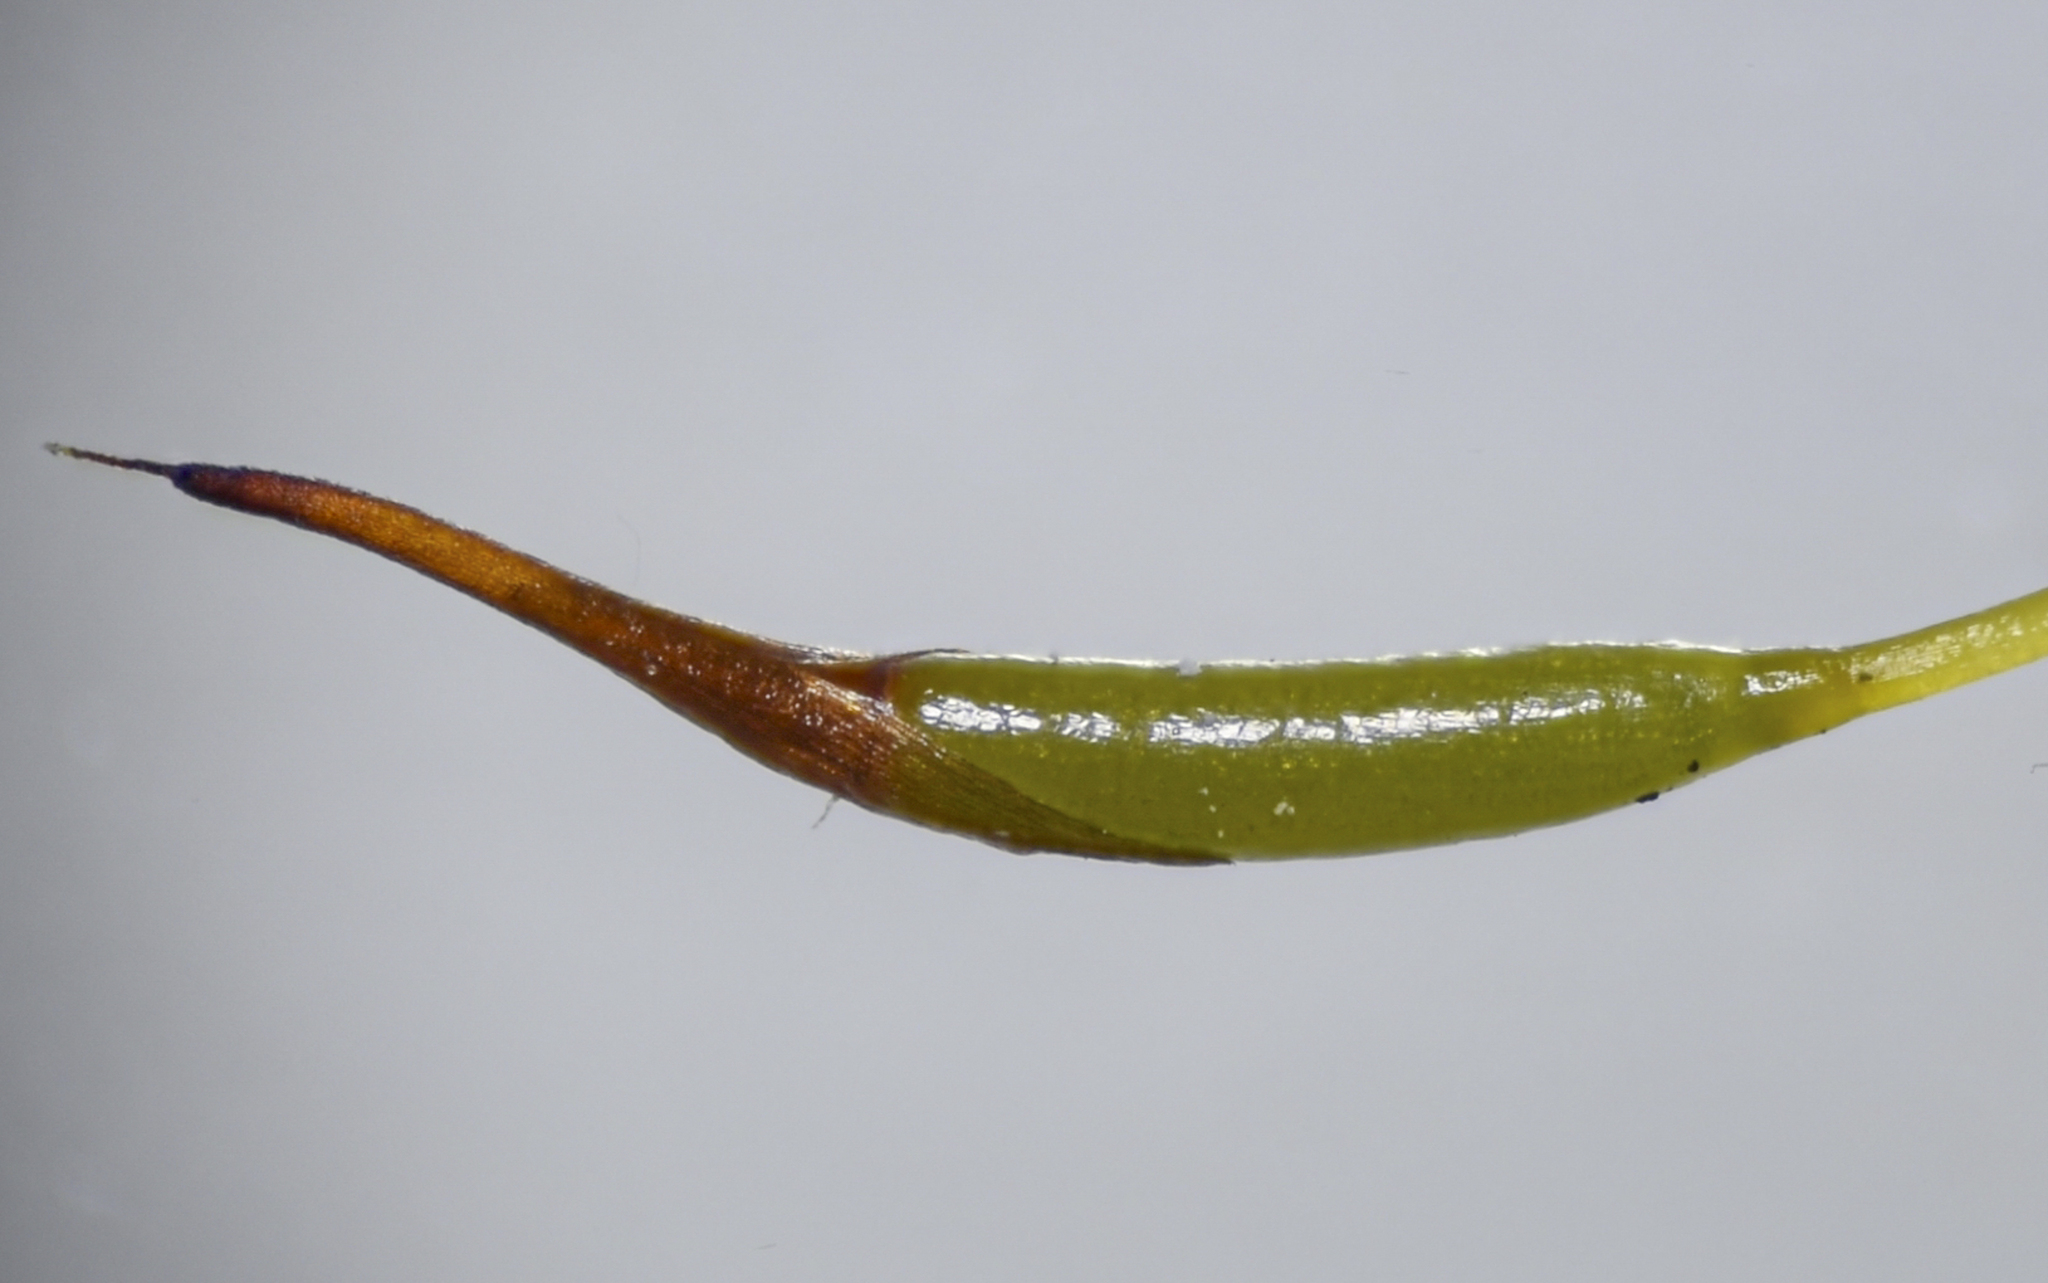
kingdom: Plantae
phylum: Bryophyta
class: Bryopsida
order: Pottiales
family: Pottiaceae
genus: Tortula
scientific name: Tortula muralis
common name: Wall screw-moss
